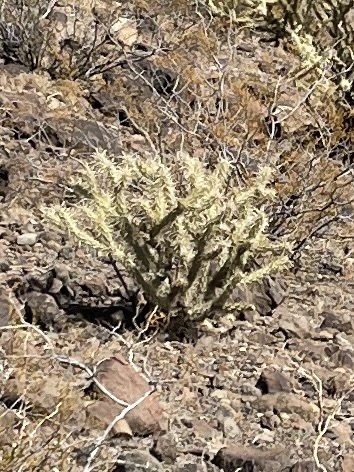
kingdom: Plantae
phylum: Tracheophyta
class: Magnoliopsida
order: Caryophyllales
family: Cactaceae
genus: Cylindropuntia
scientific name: Cylindropuntia acanthocarpa
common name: Buckhorn cholla
